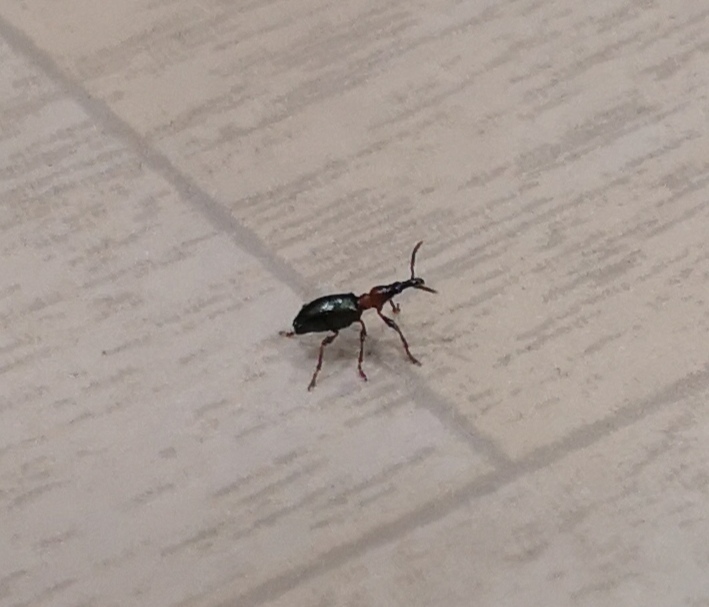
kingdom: Animalia
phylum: Arthropoda
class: Insecta
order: Coleoptera
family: Brentidae
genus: Cylas
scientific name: Cylas formicarius
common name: Sweetpotato weevil
